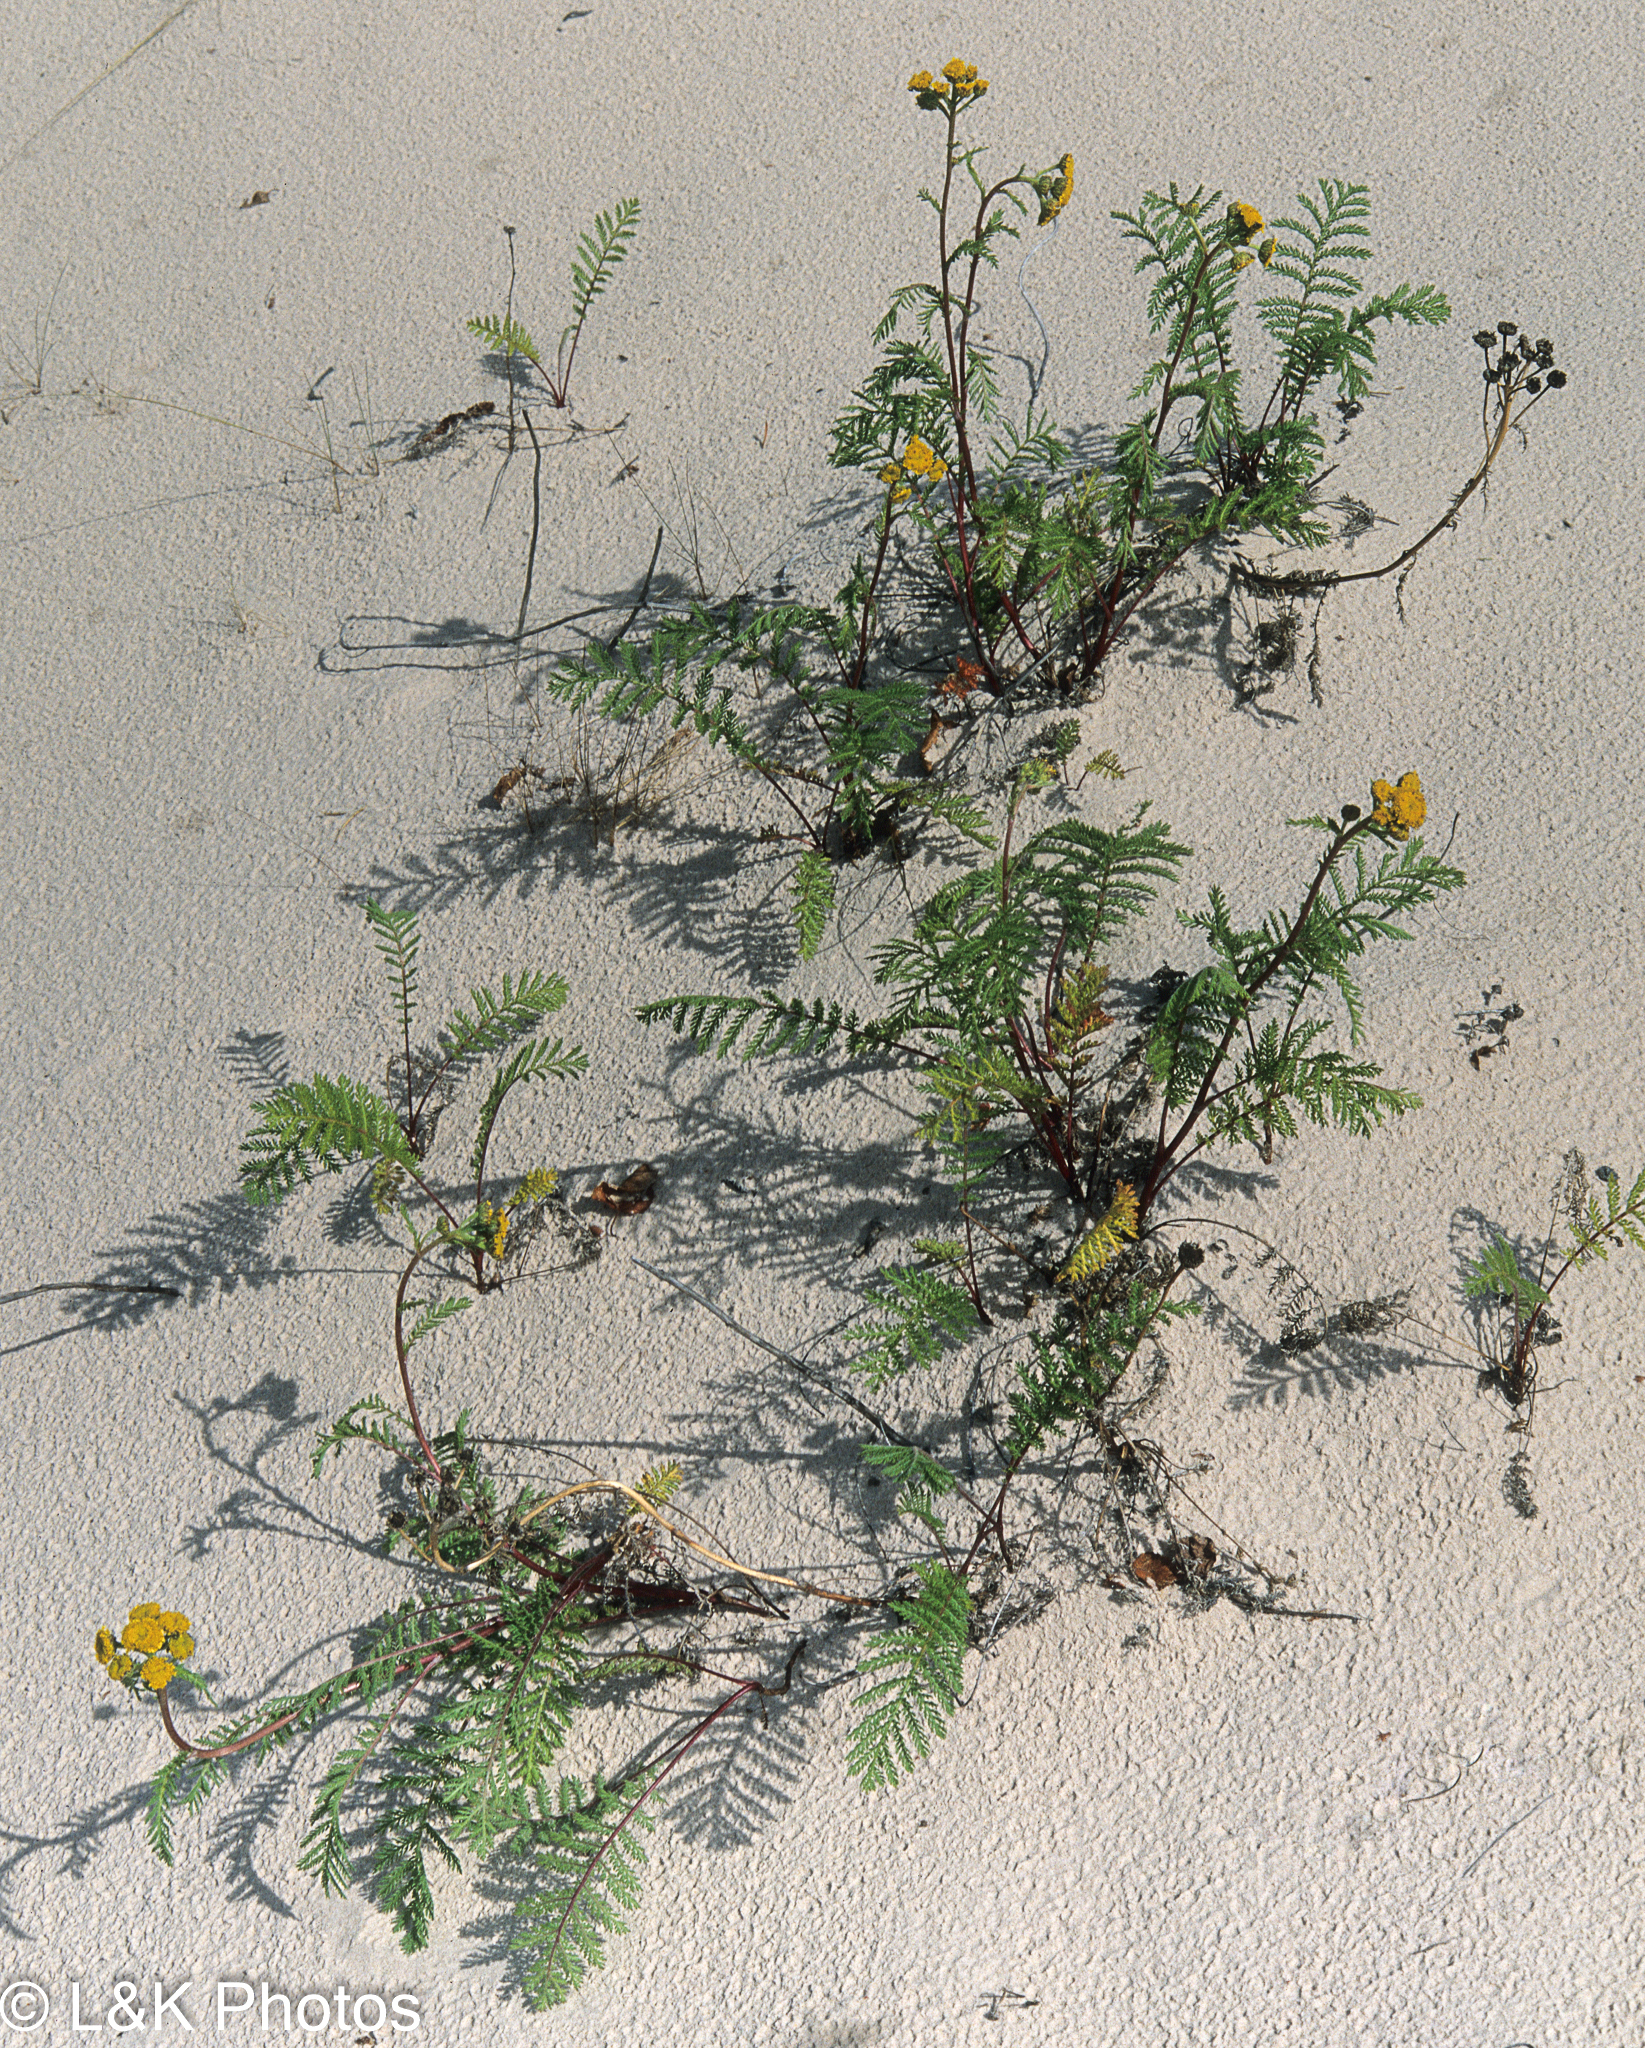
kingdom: Plantae
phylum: Tracheophyta
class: Magnoliopsida
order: Asterales
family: Asteraceae
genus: Tanacetum
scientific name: Tanacetum bipinnatum
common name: Dwarf tansy
